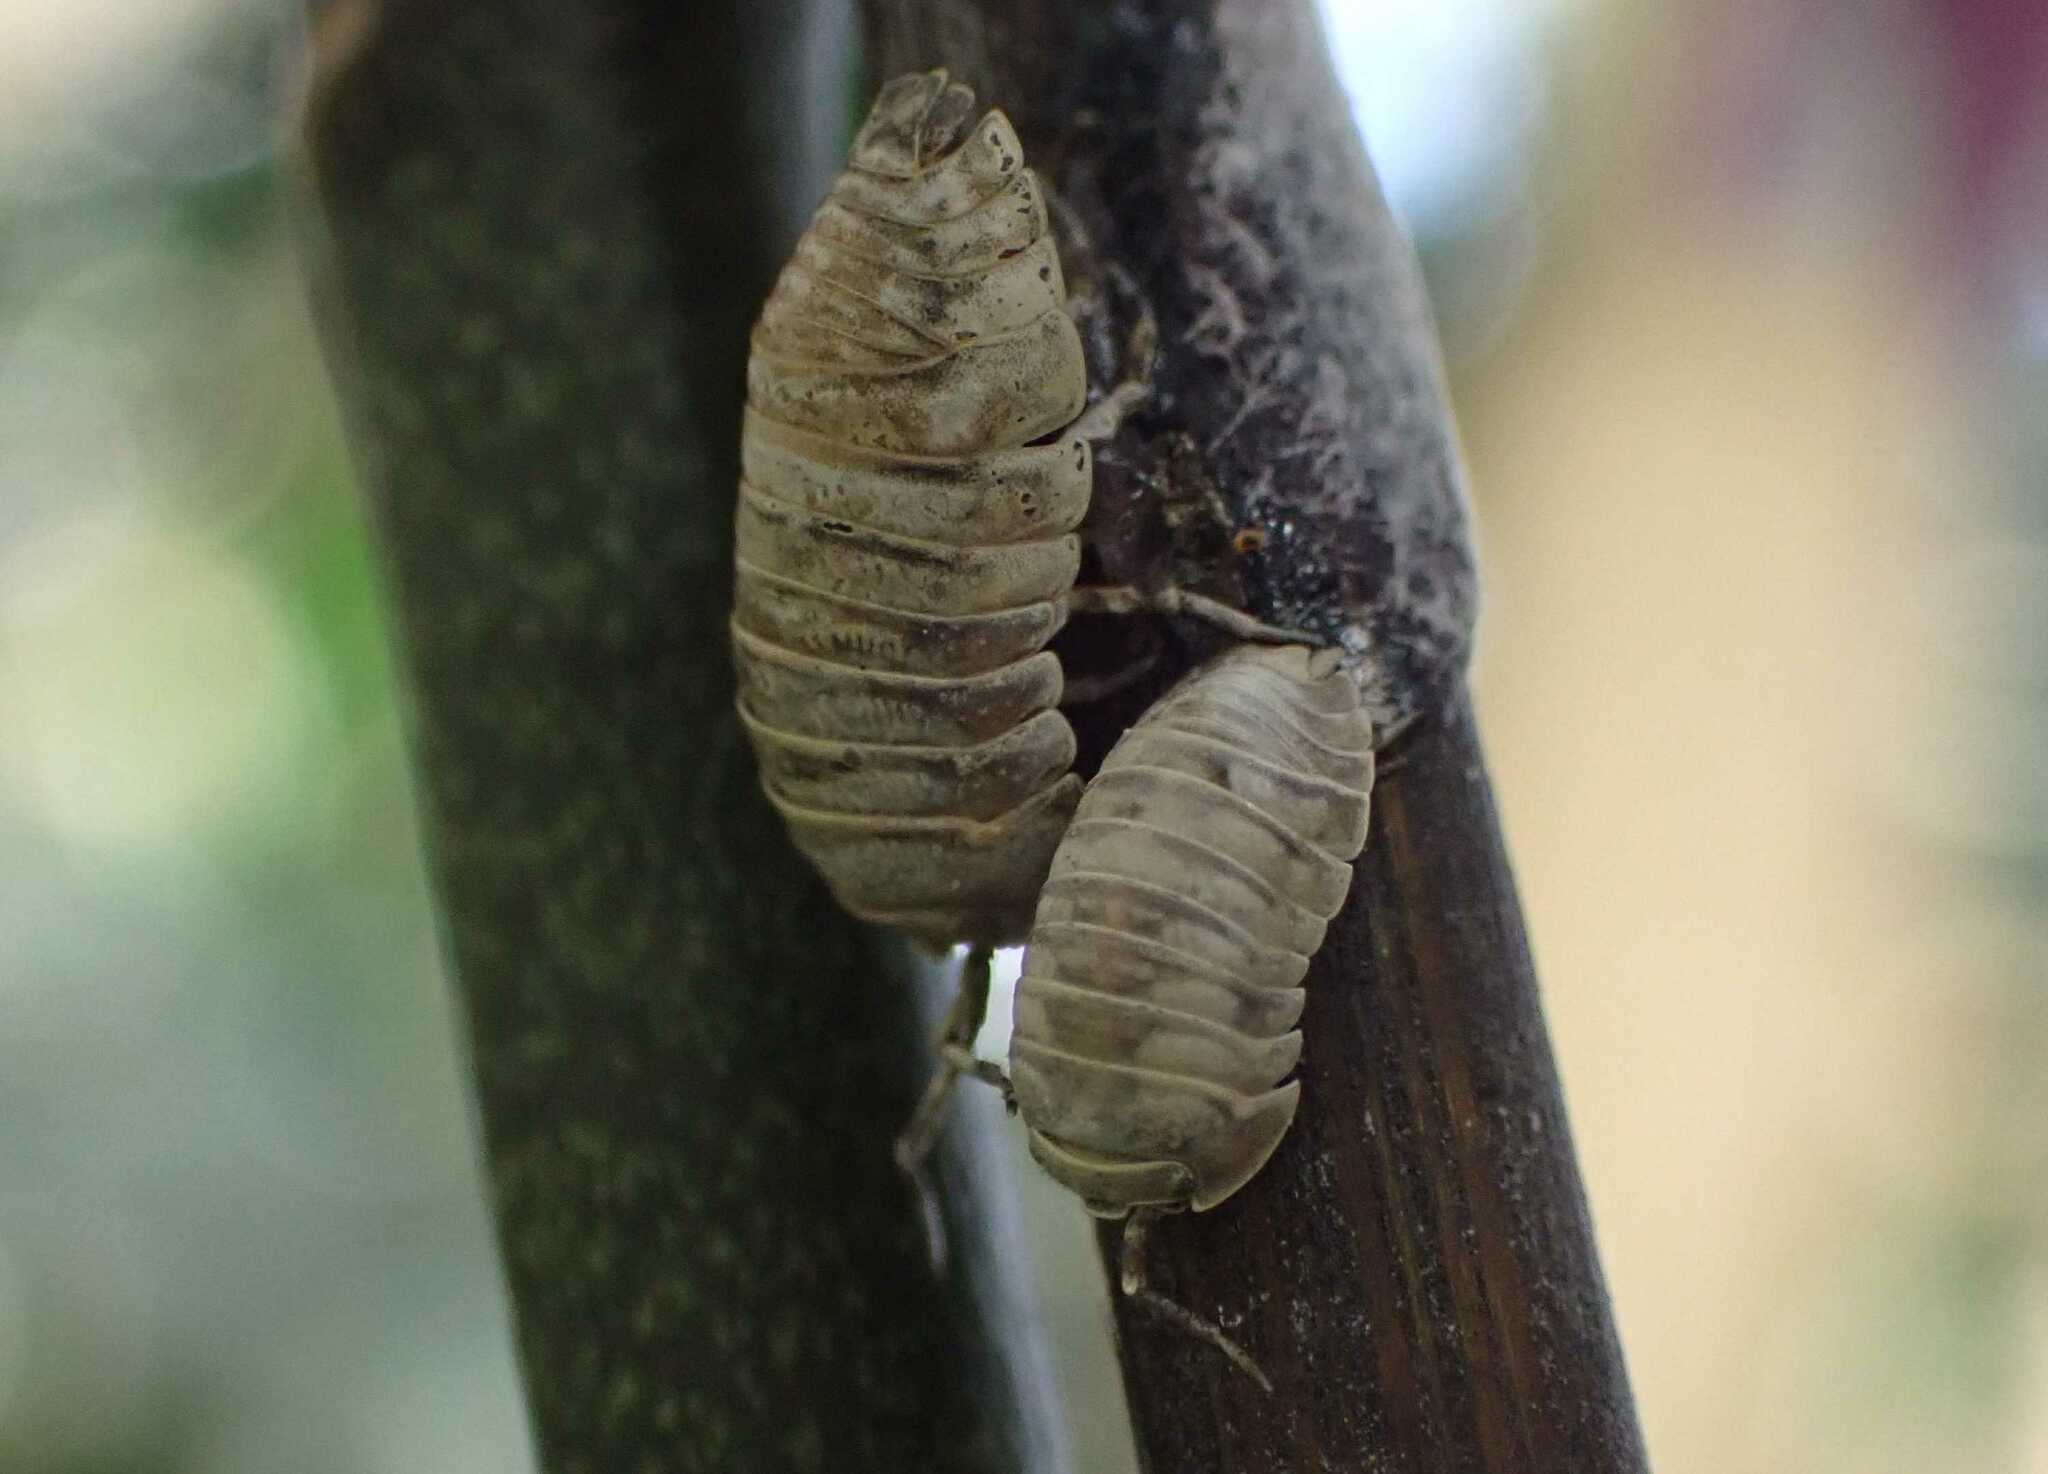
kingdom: Animalia
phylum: Arthropoda
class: Malacostraca
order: Isopoda
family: Armadillidiidae
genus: Armadillidium
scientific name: Armadillidium nasatum
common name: Isopod
